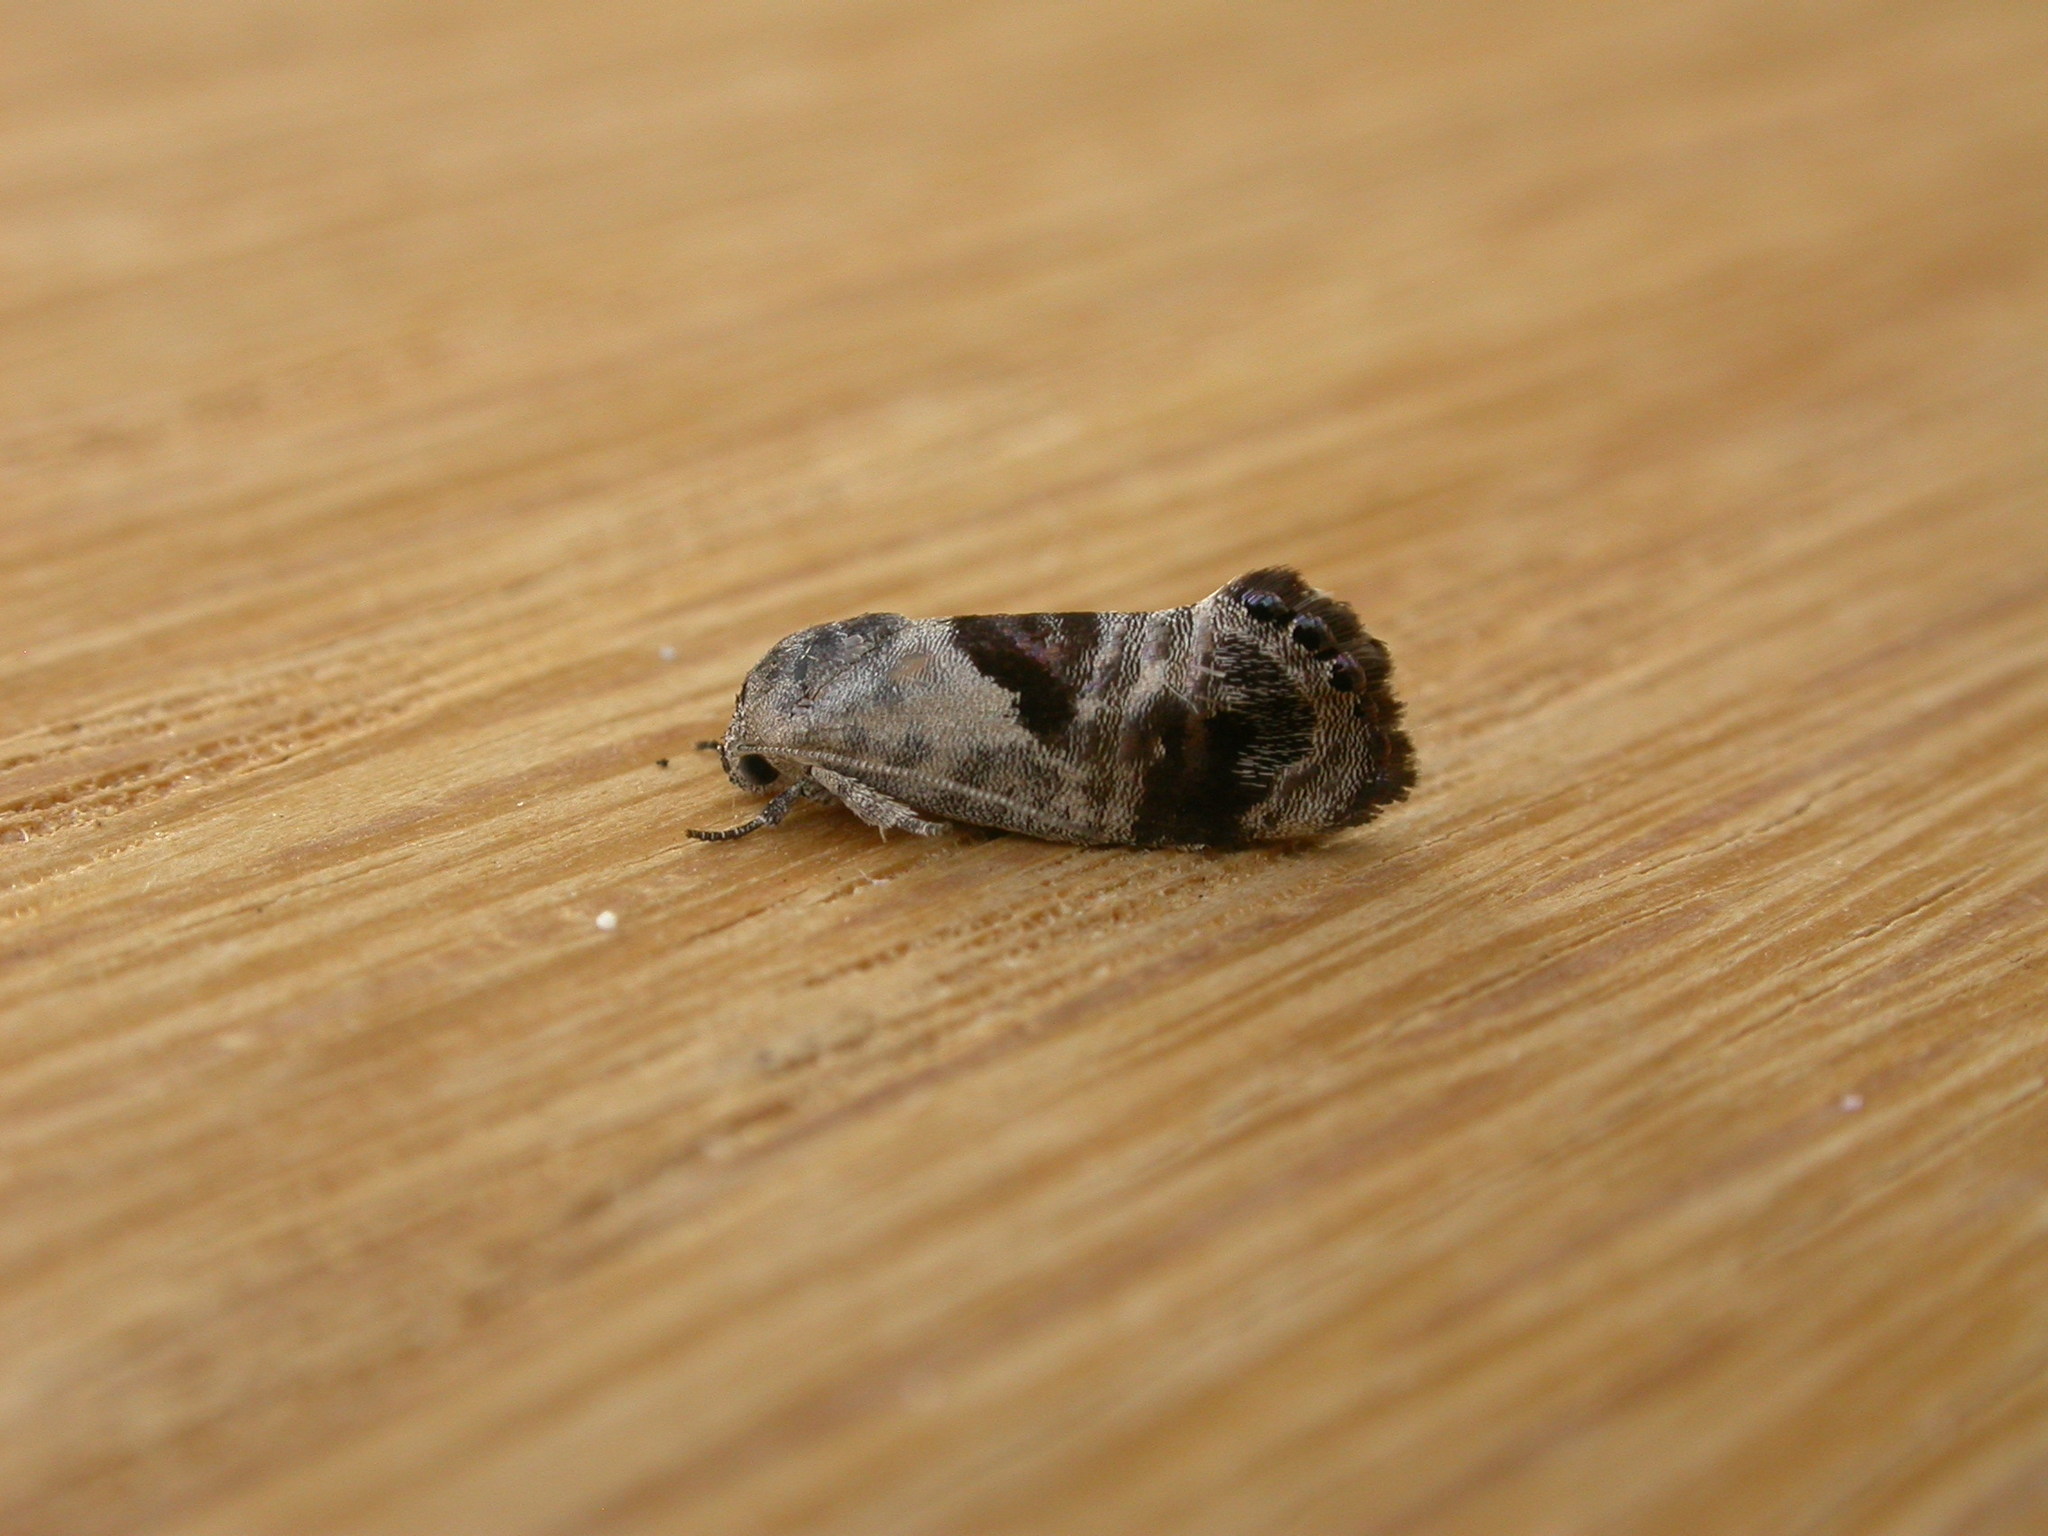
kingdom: Animalia
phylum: Arthropoda
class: Insecta
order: Lepidoptera
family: Depressariidae
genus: Eupselia
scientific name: Eupselia carpocapsella
